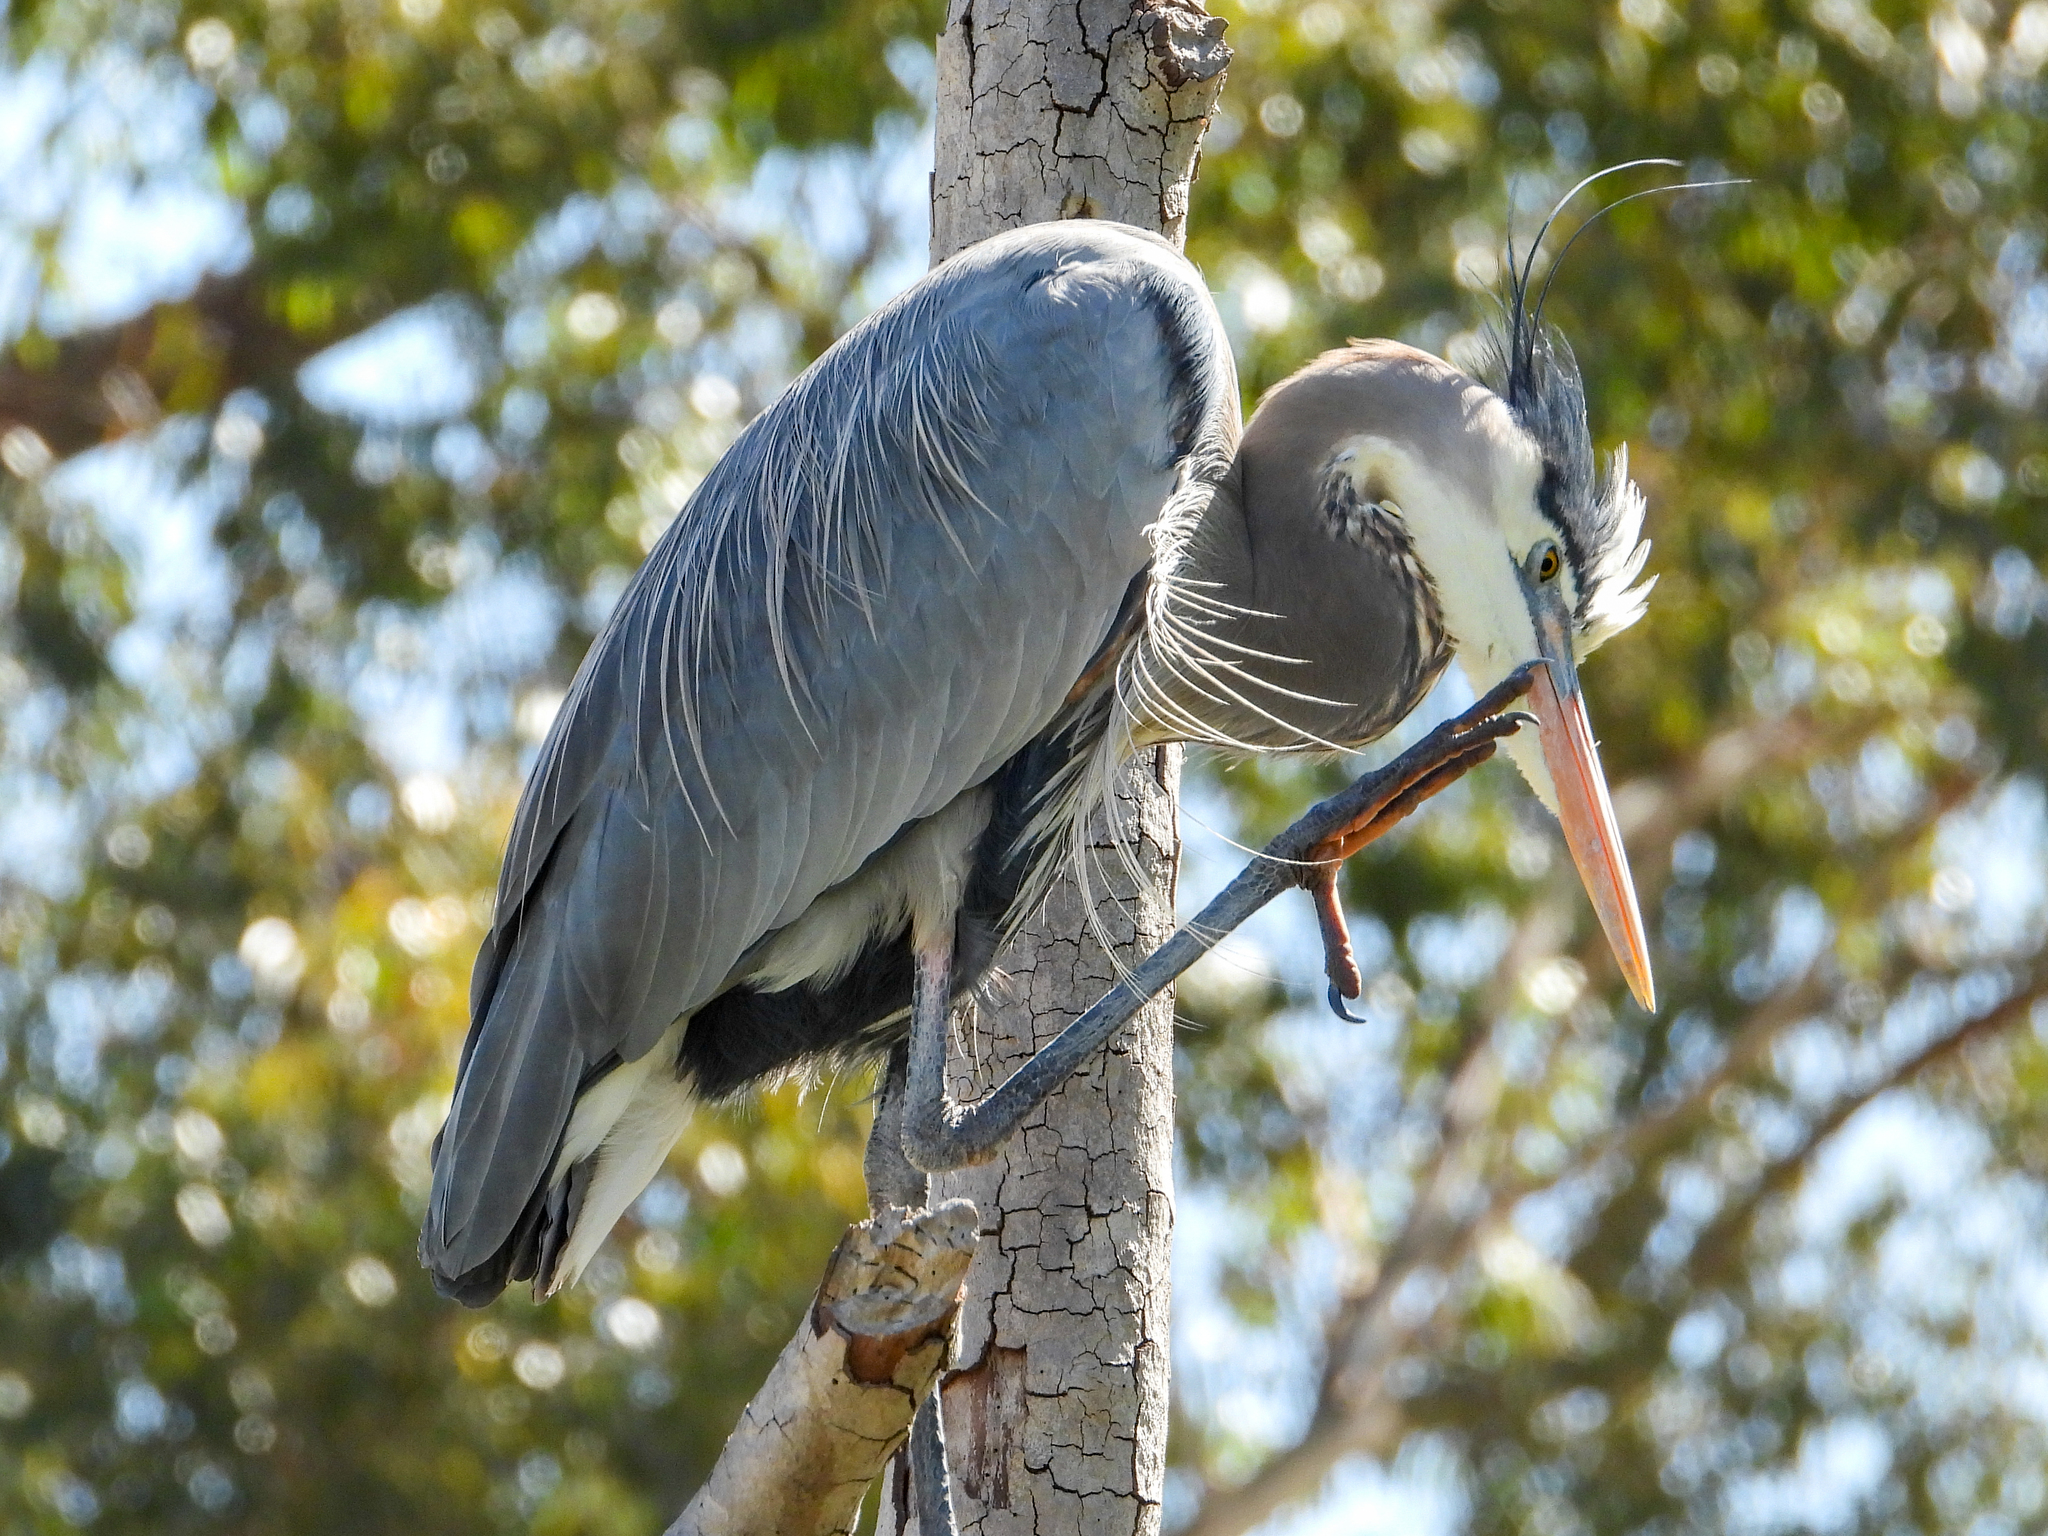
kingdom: Animalia
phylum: Chordata
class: Aves
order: Pelecaniformes
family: Ardeidae
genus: Ardea
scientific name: Ardea herodias
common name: Great blue heron
